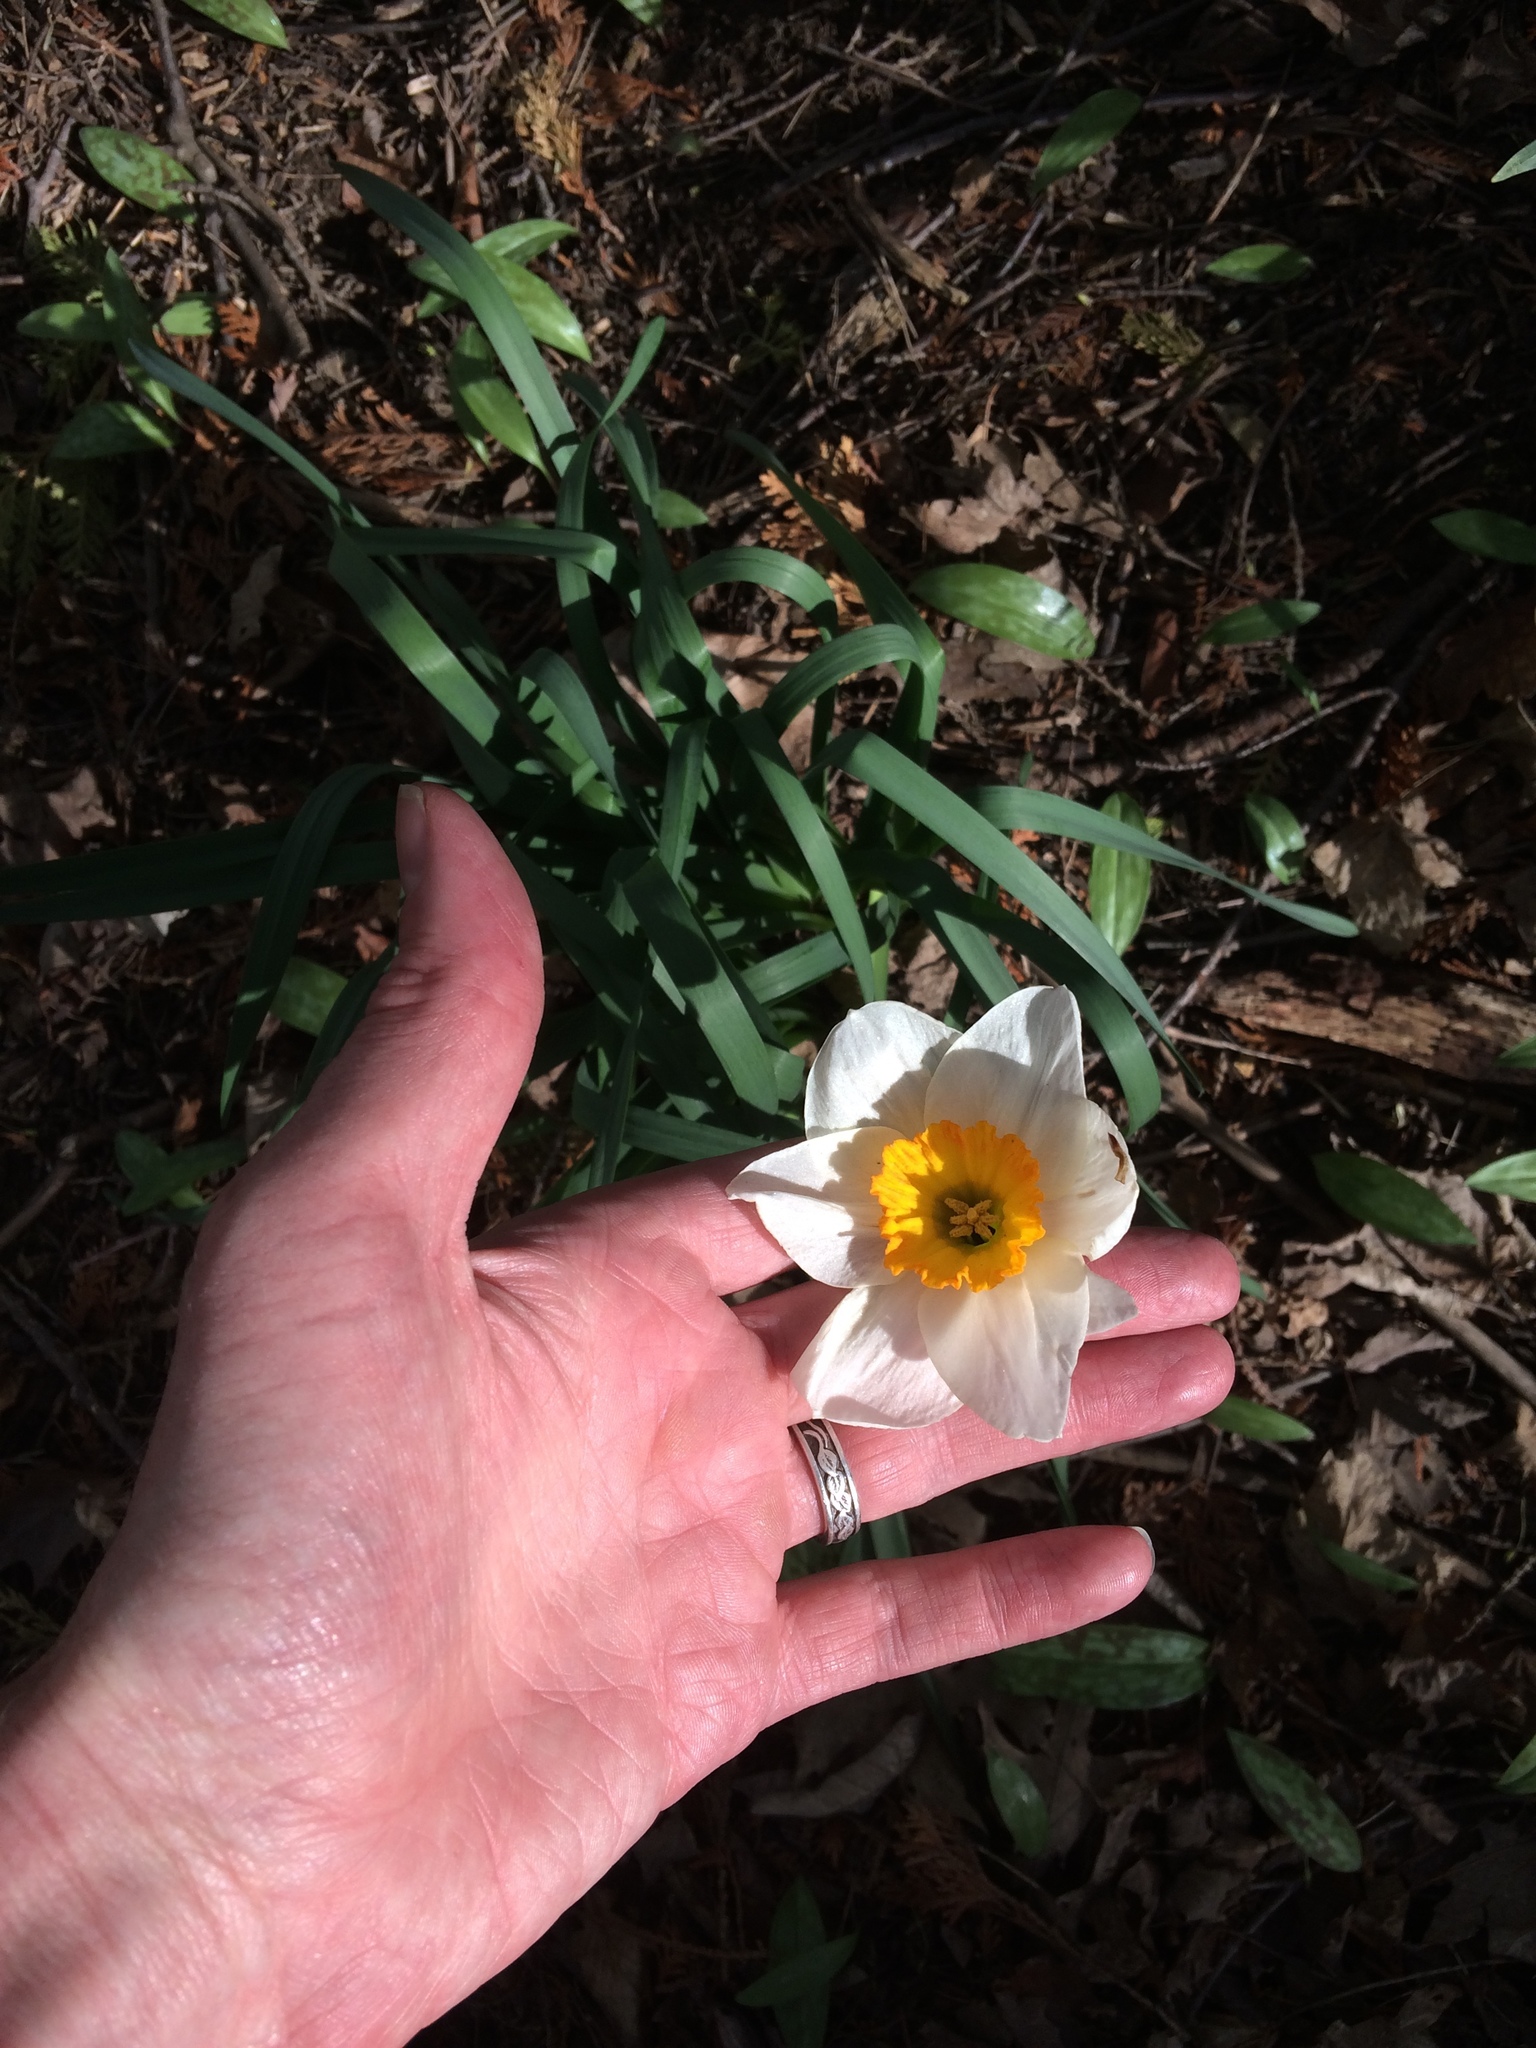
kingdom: Plantae
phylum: Tracheophyta
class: Liliopsida
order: Asparagales
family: Amaryllidaceae
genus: Narcissus
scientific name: Narcissus
